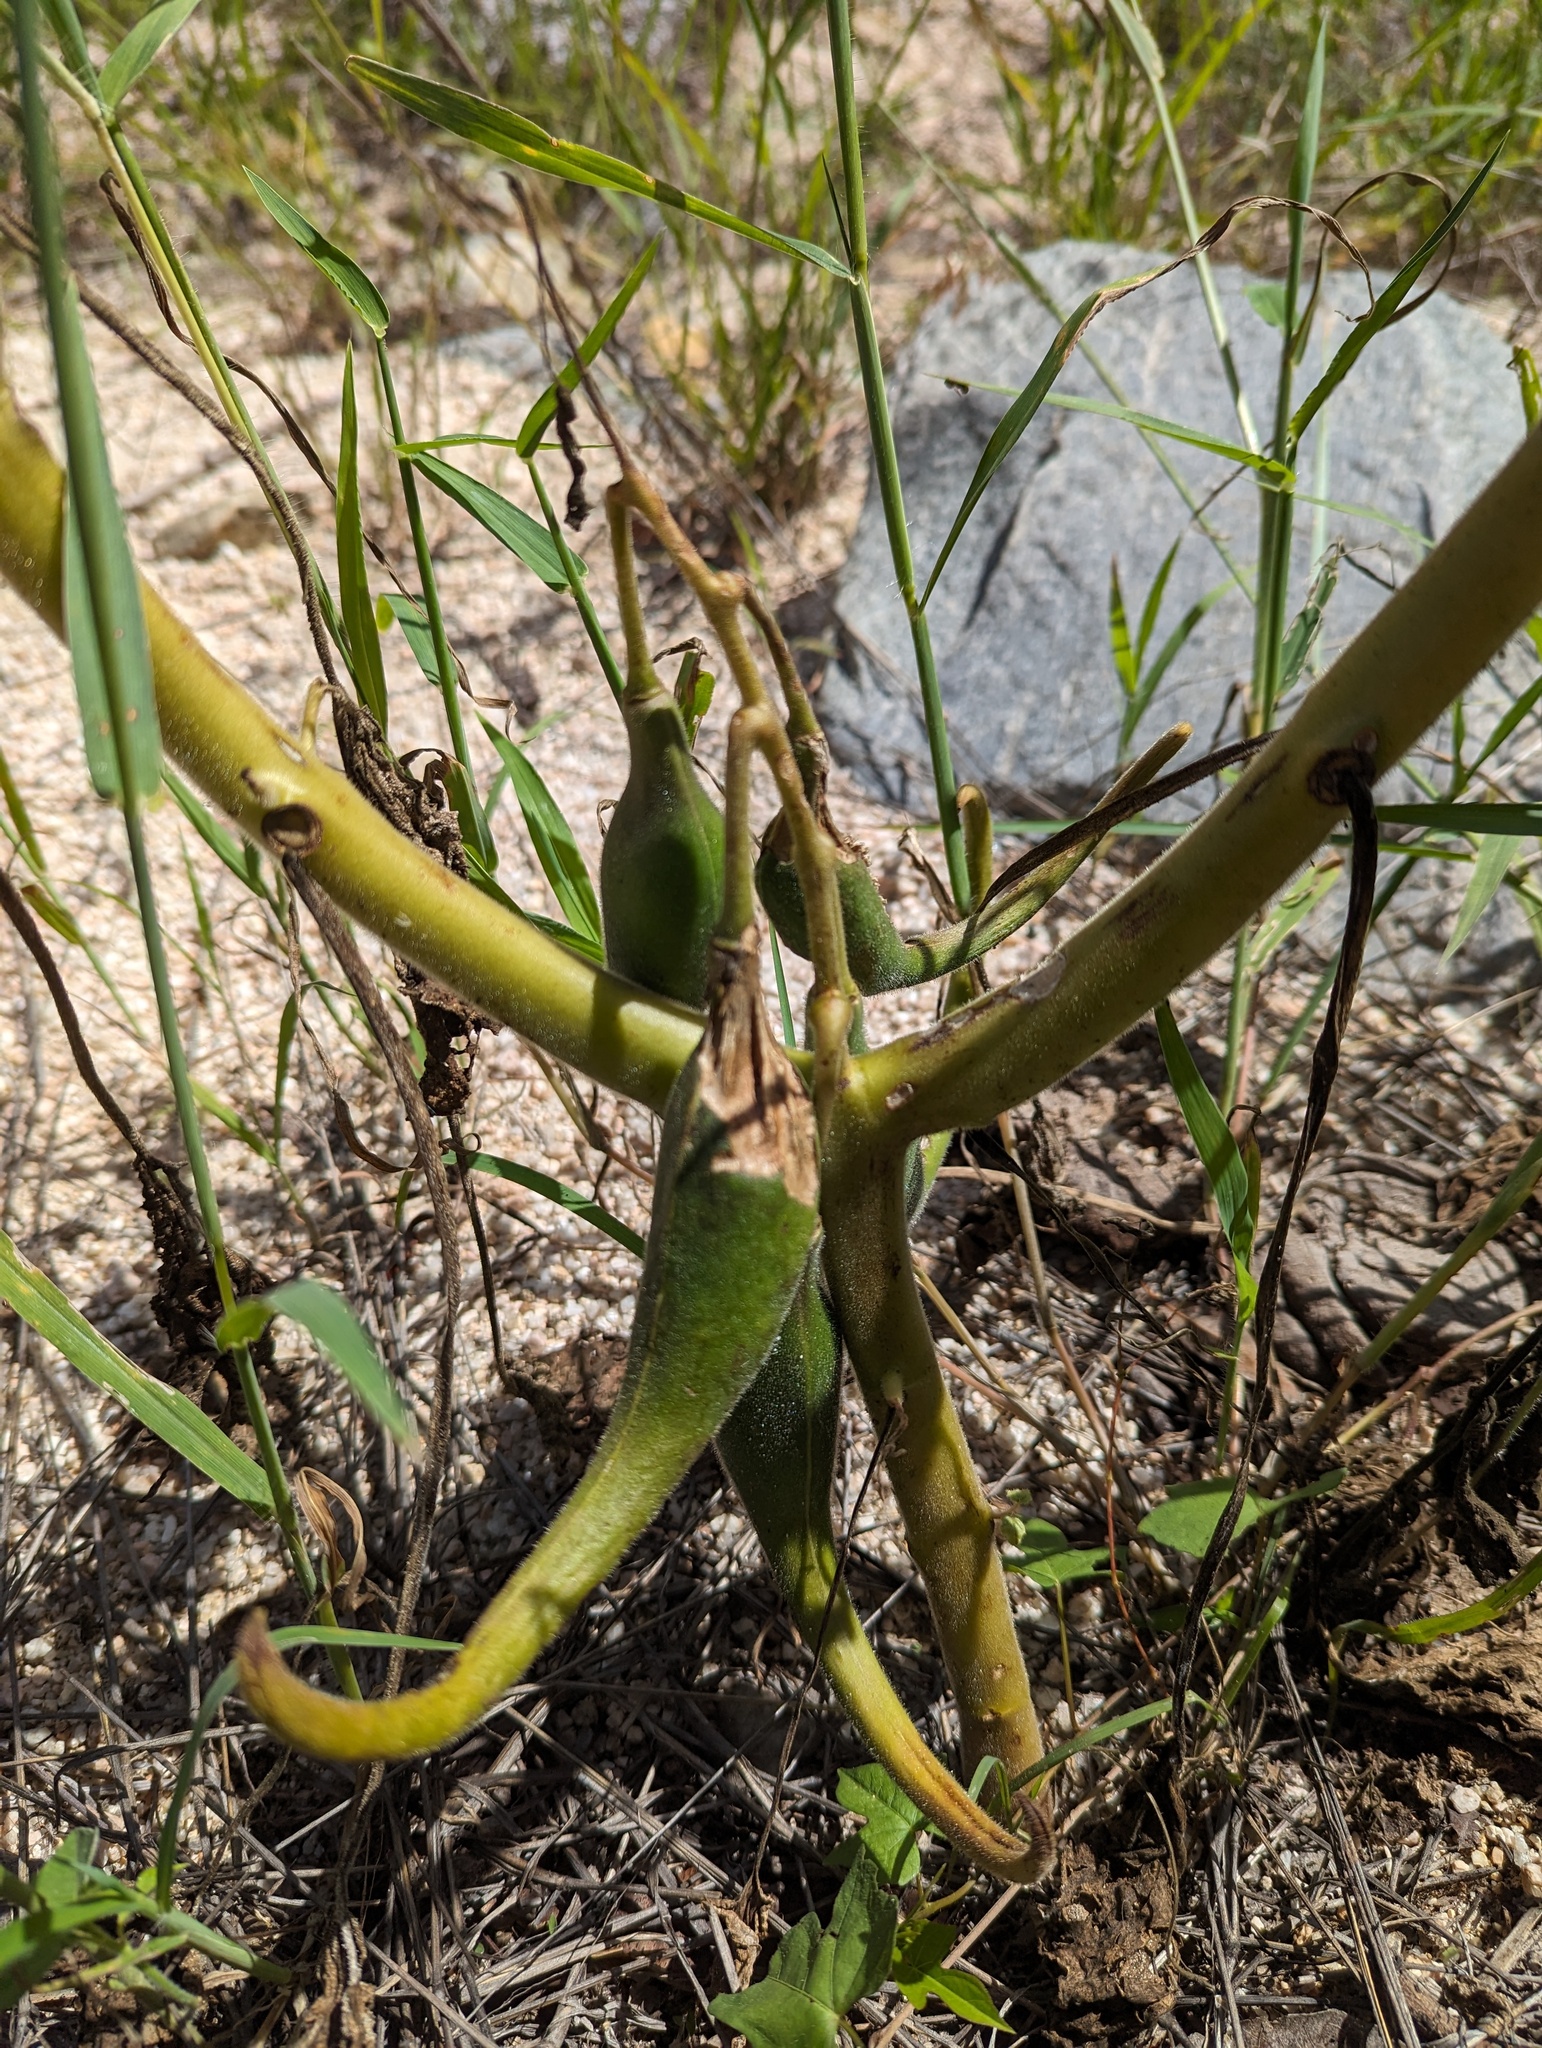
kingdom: Plantae
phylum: Tracheophyta
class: Magnoliopsida
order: Lamiales
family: Martyniaceae
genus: Proboscidea
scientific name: Proboscidea althaeifolia
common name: Desert unicorn-plant
